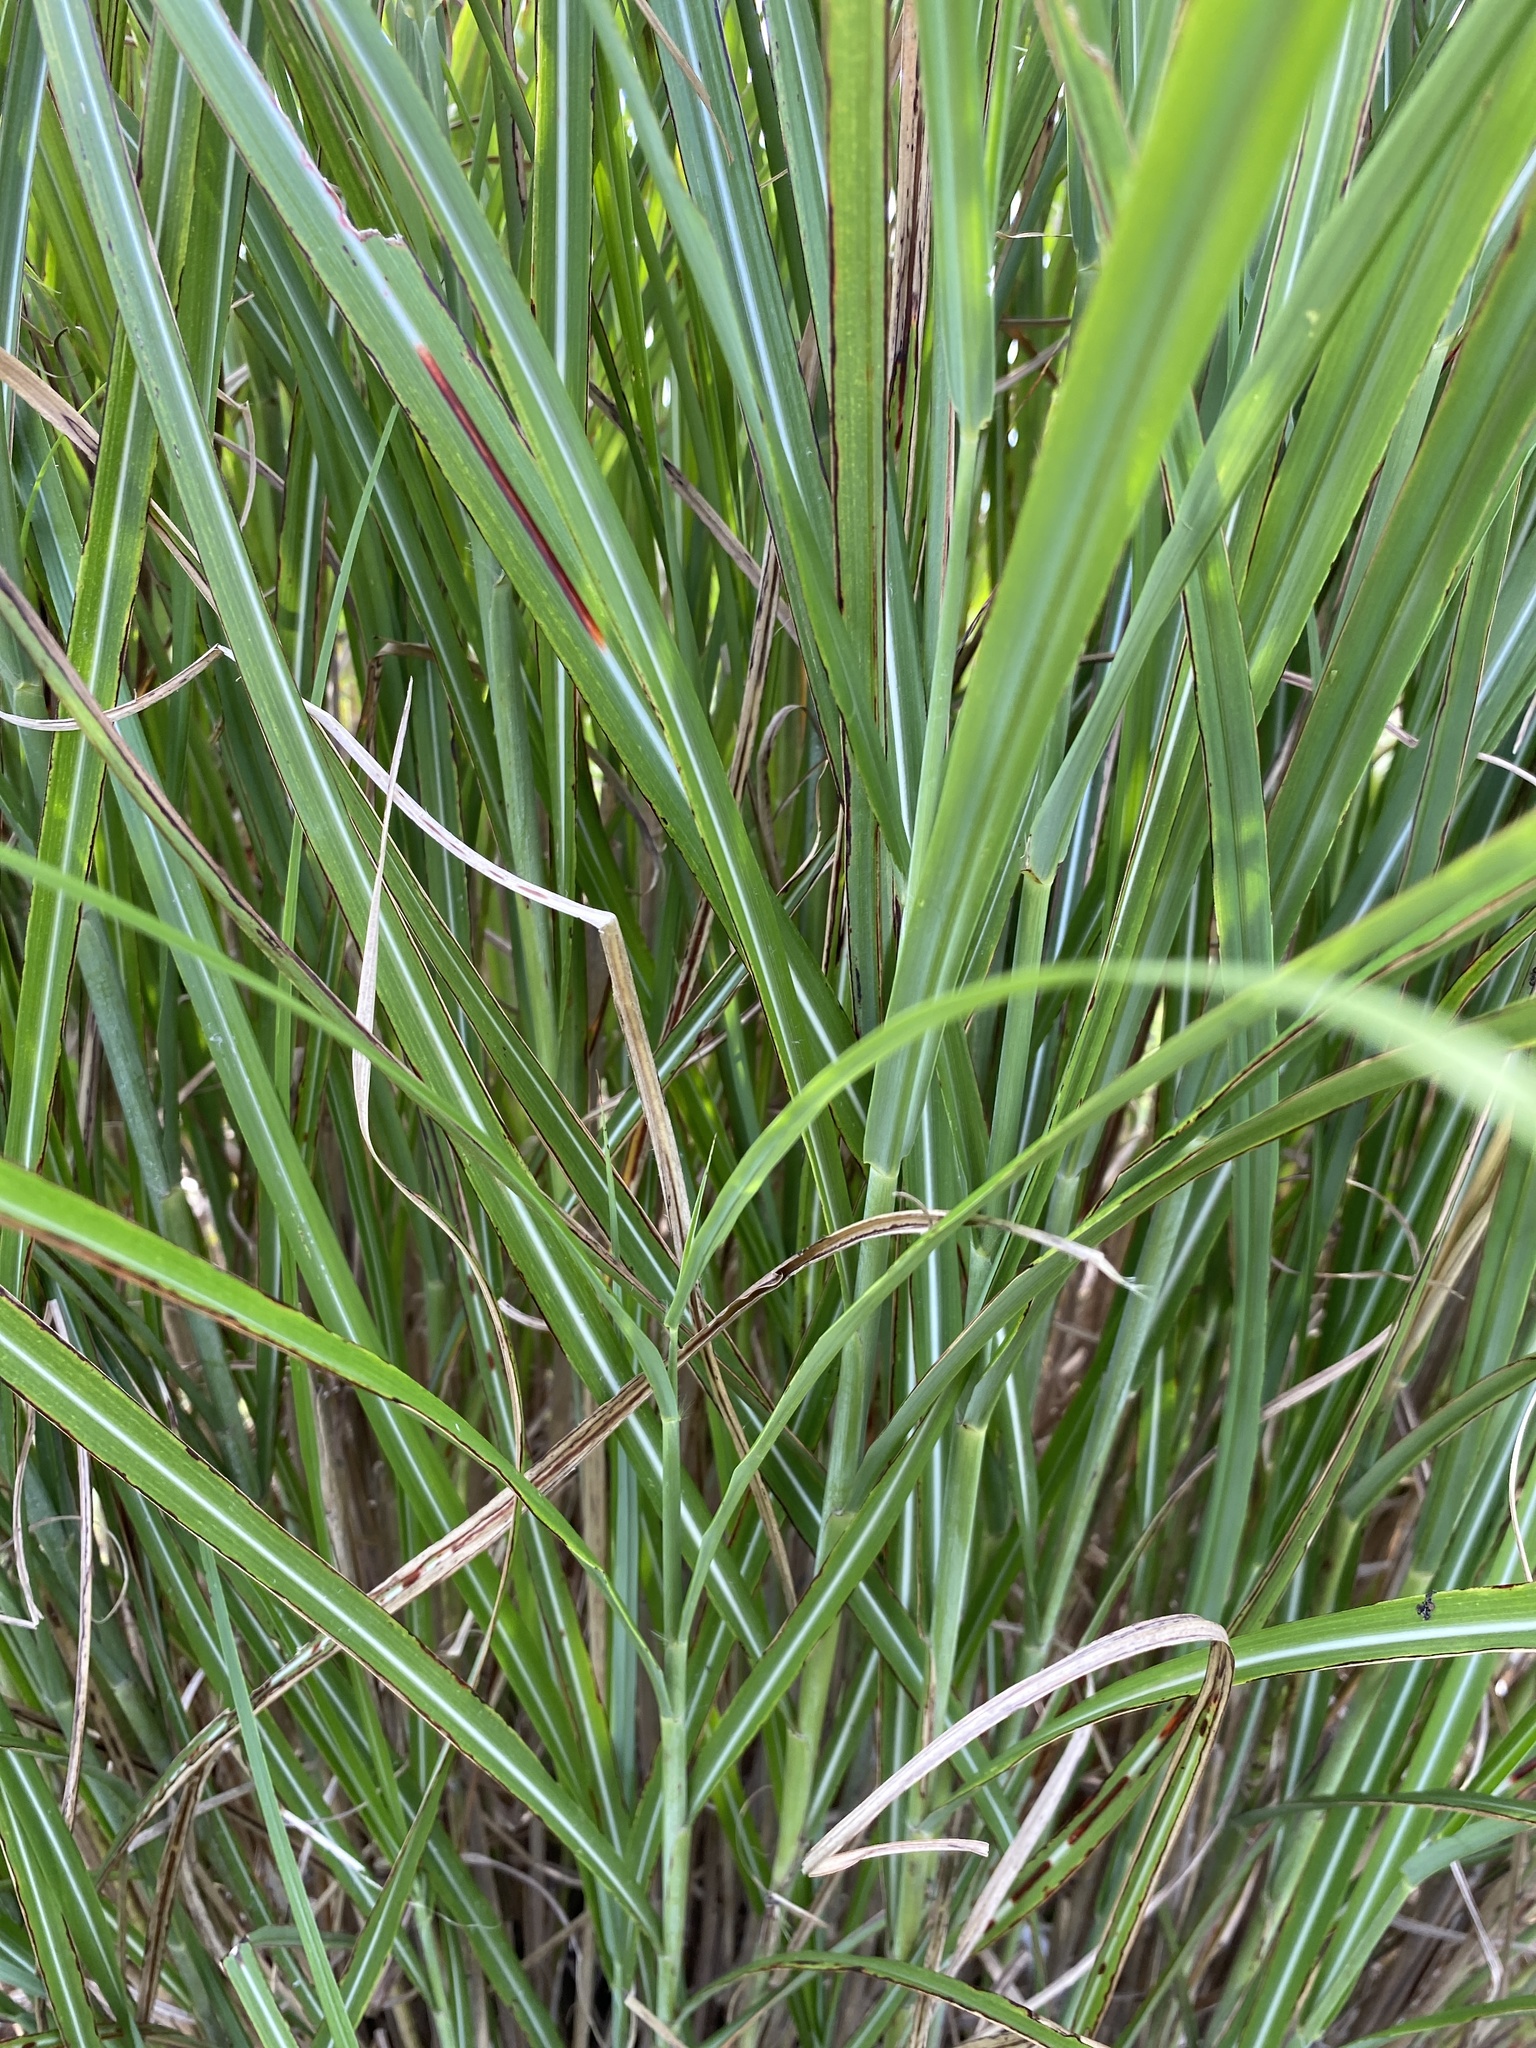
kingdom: Plantae
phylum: Tracheophyta
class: Liliopsida
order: Poales
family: Poaceae
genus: Miscanthus
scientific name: Miscanthus sinensis
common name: Chinese silvergrass
